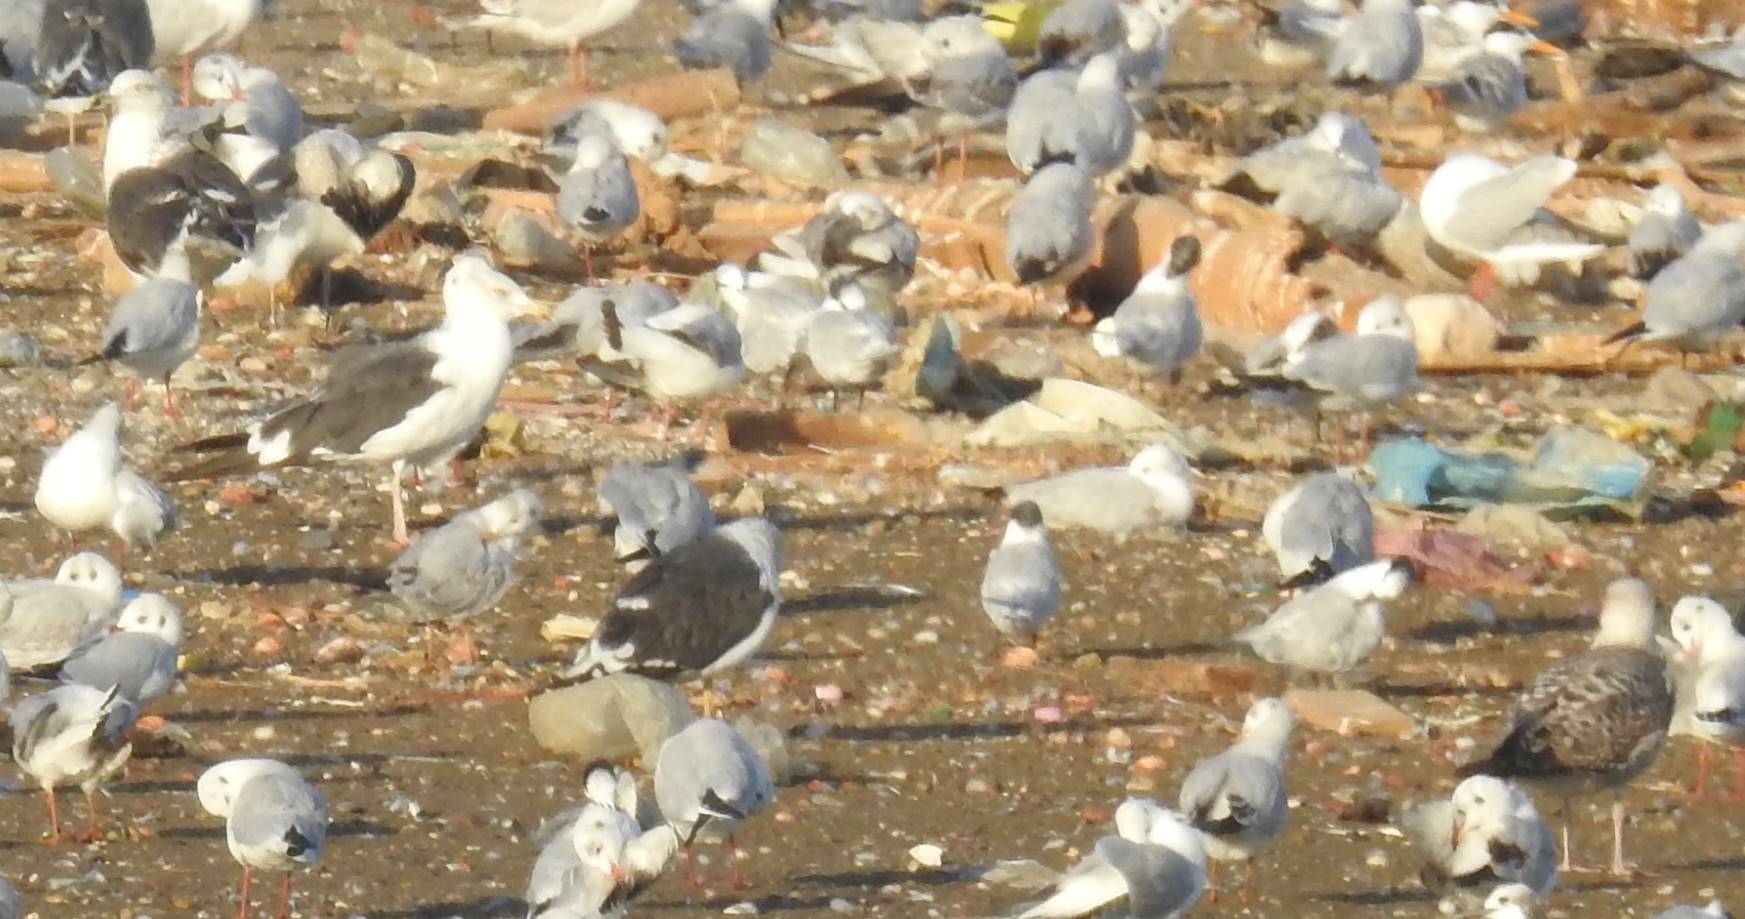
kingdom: Animalia
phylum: Chordata
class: Aves
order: Charadriiformes
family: Laridae
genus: Larus
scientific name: Larus fuscus
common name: Lesser black-backed gull
